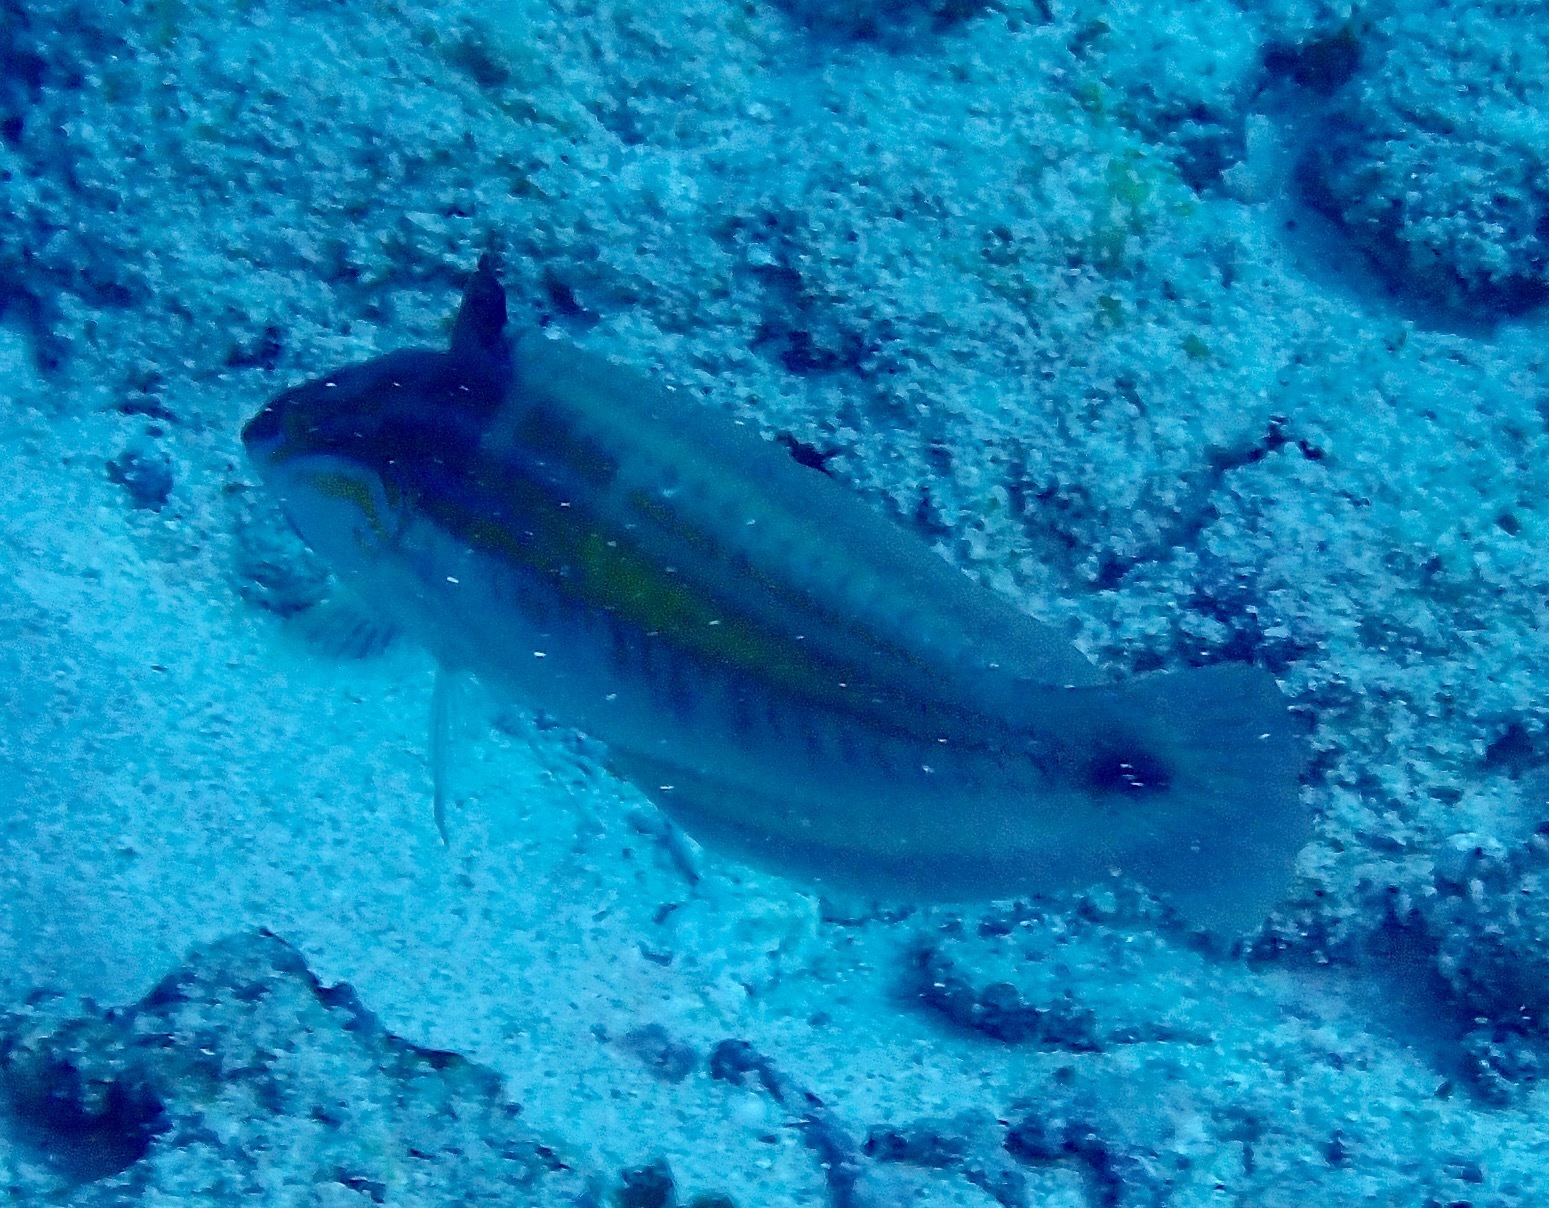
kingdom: Animalia
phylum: Chordata
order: Perciformes
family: Labridae
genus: Coris
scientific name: Coris caudimacula
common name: Spottail coris
